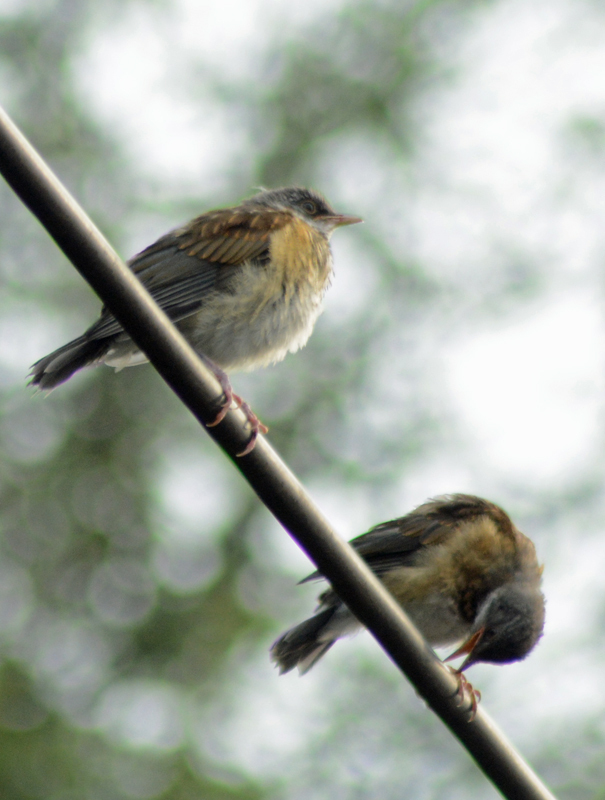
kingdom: Animalia
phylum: Chordata
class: Aves
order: Passeriformes
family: Turdidae
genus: Turdus
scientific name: Turdus rufopalliatus
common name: Rufous-backed robin
